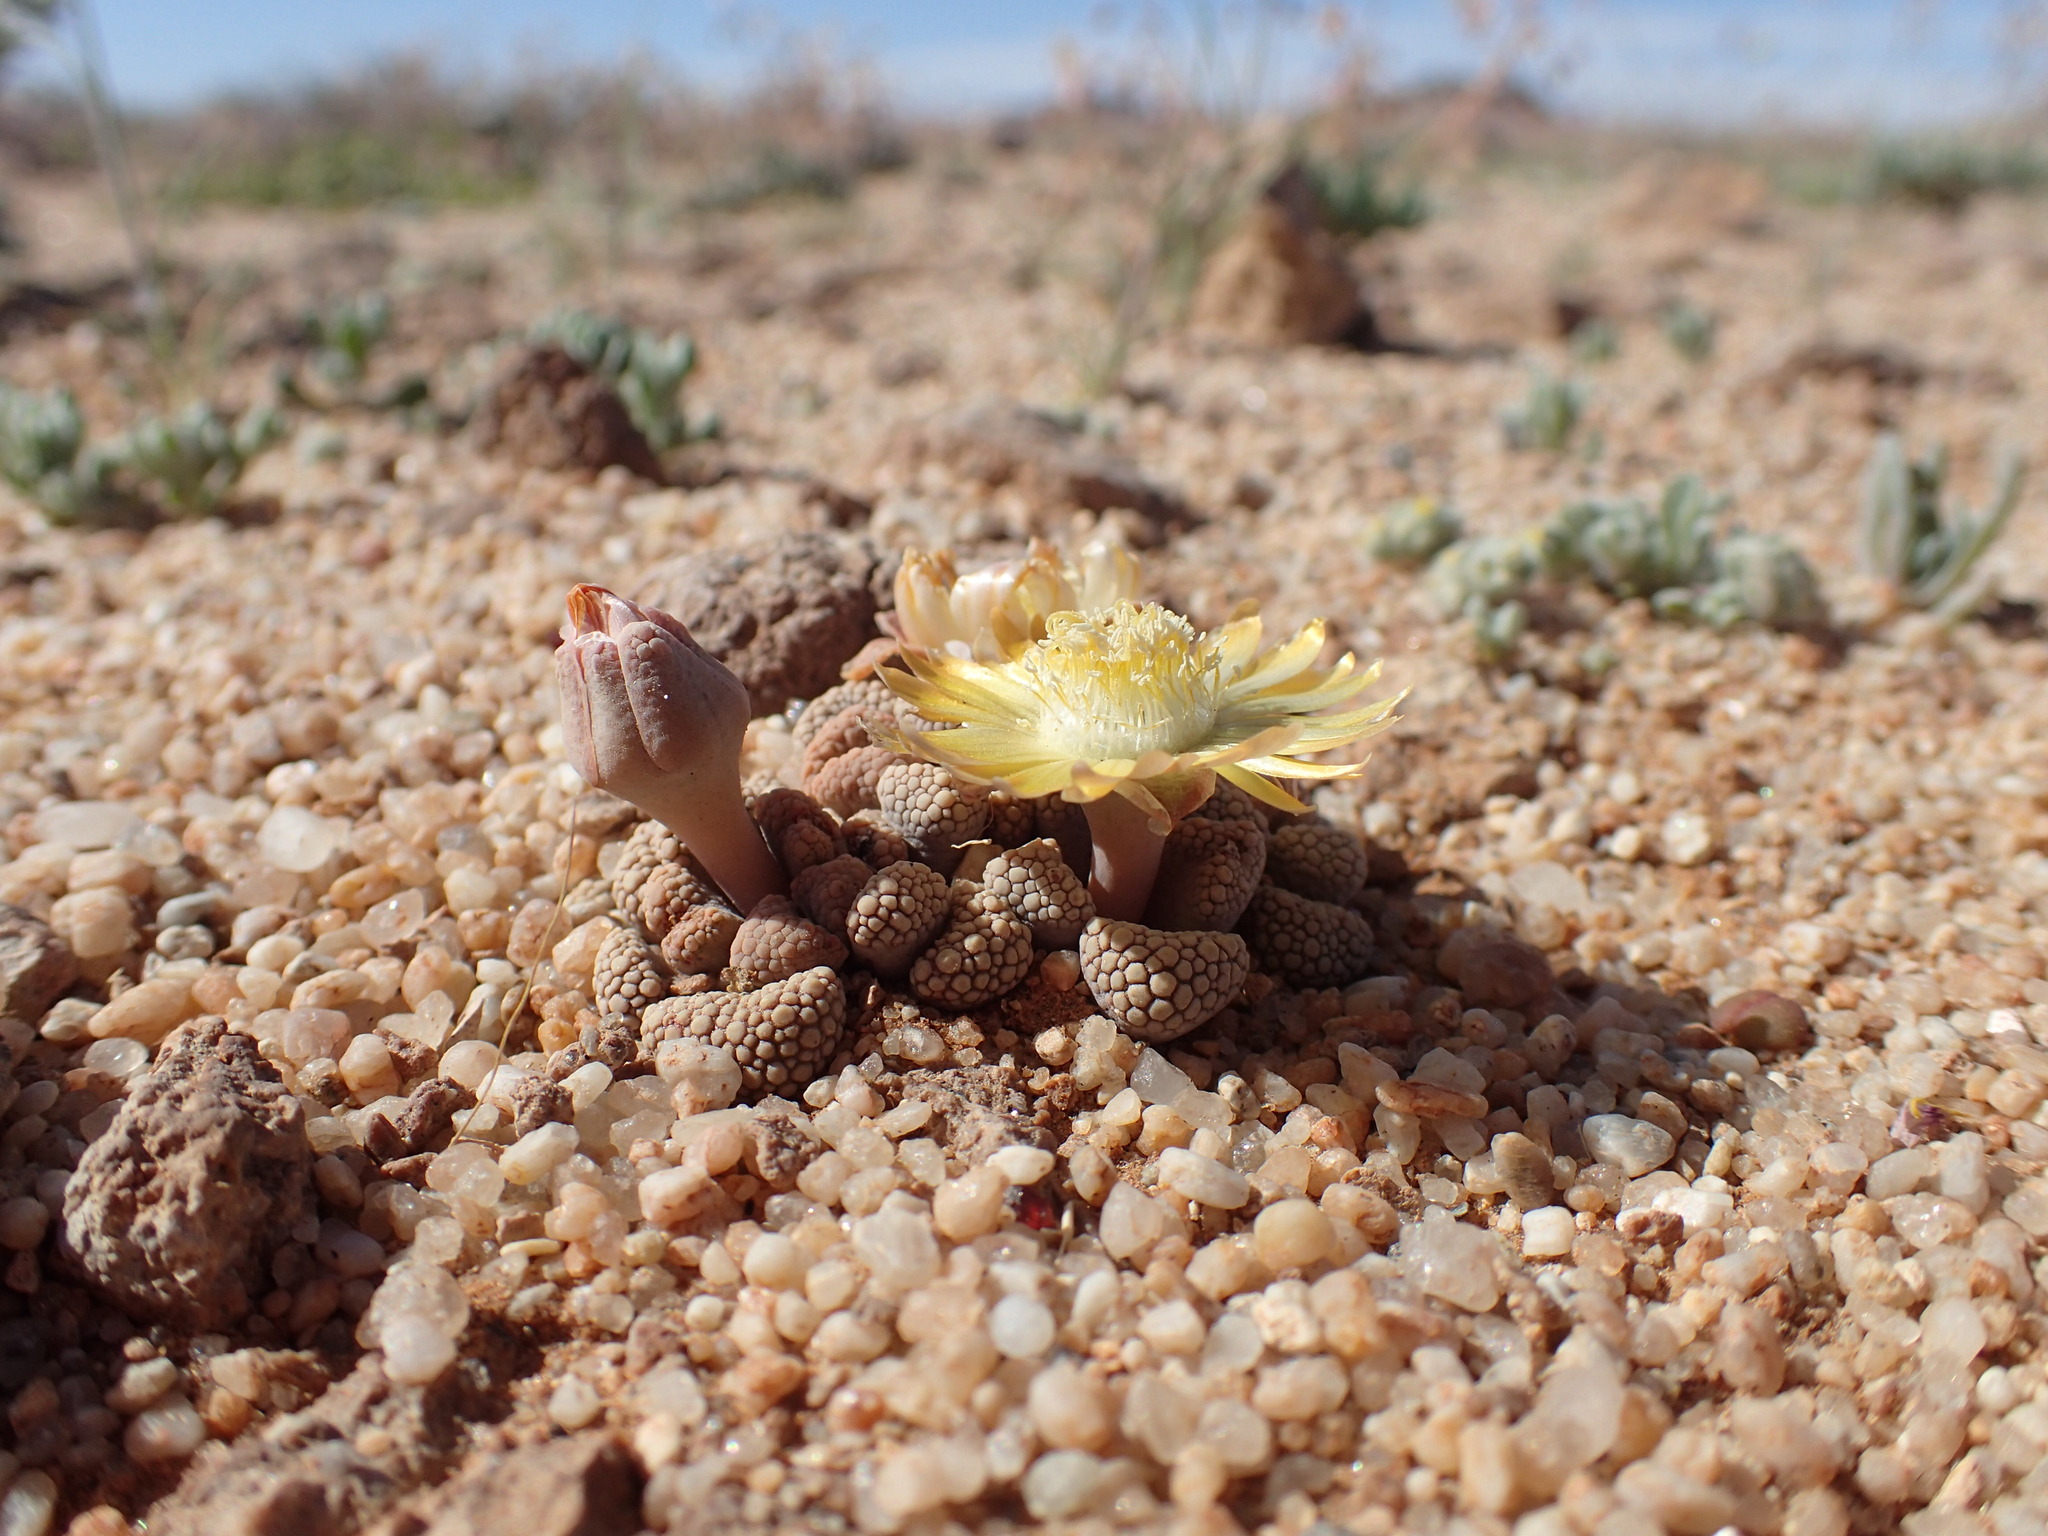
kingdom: Plantae
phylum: Tracheophyta
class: Magnoliopsida
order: Caryophyllales
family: Aizoaceae
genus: Titanopsis
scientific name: Titanopsis schwantesii
